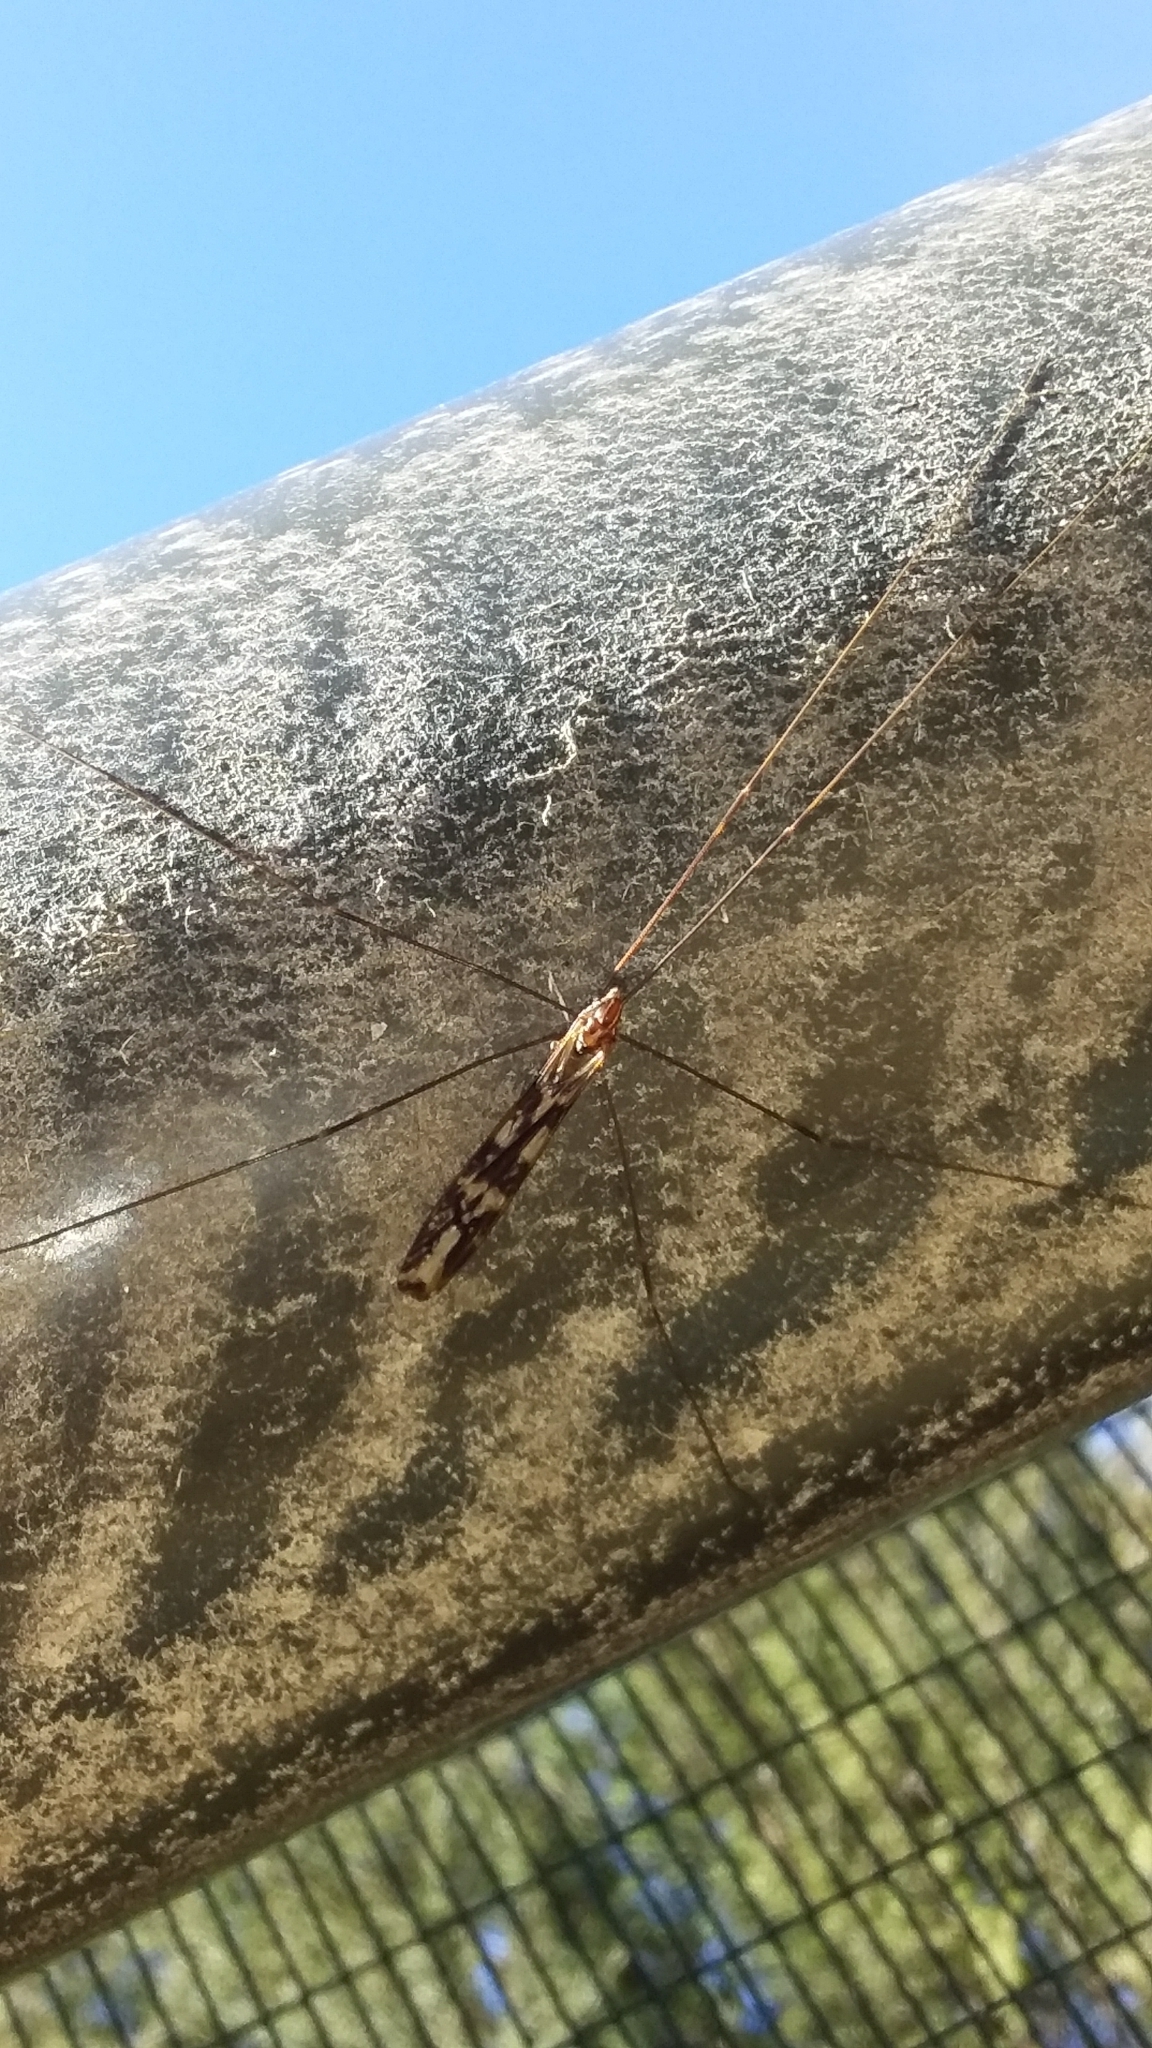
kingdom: Animalia
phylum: Arthropoda
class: Insecta
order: Diptera
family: Limoniidae
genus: Discobola
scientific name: Discobola dohrni
